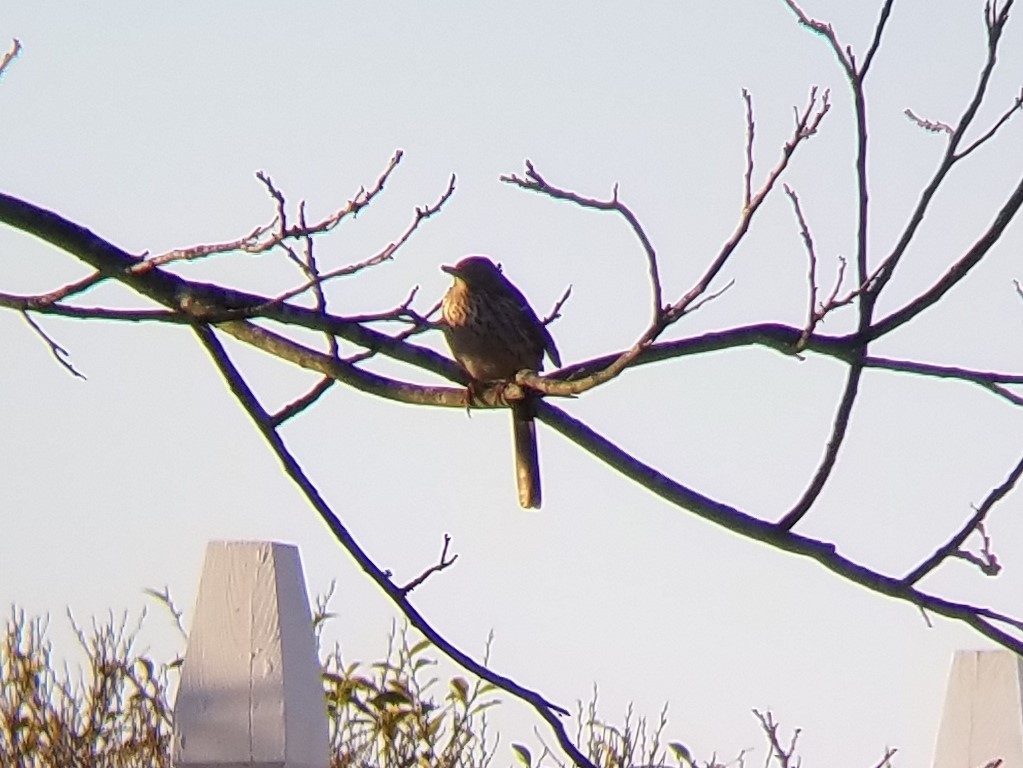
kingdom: Animalia
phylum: Chordata
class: Aves
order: Passeriformes
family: Mimidae
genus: Toxostoma
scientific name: Toxostoma rufum
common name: Brown thrasher
